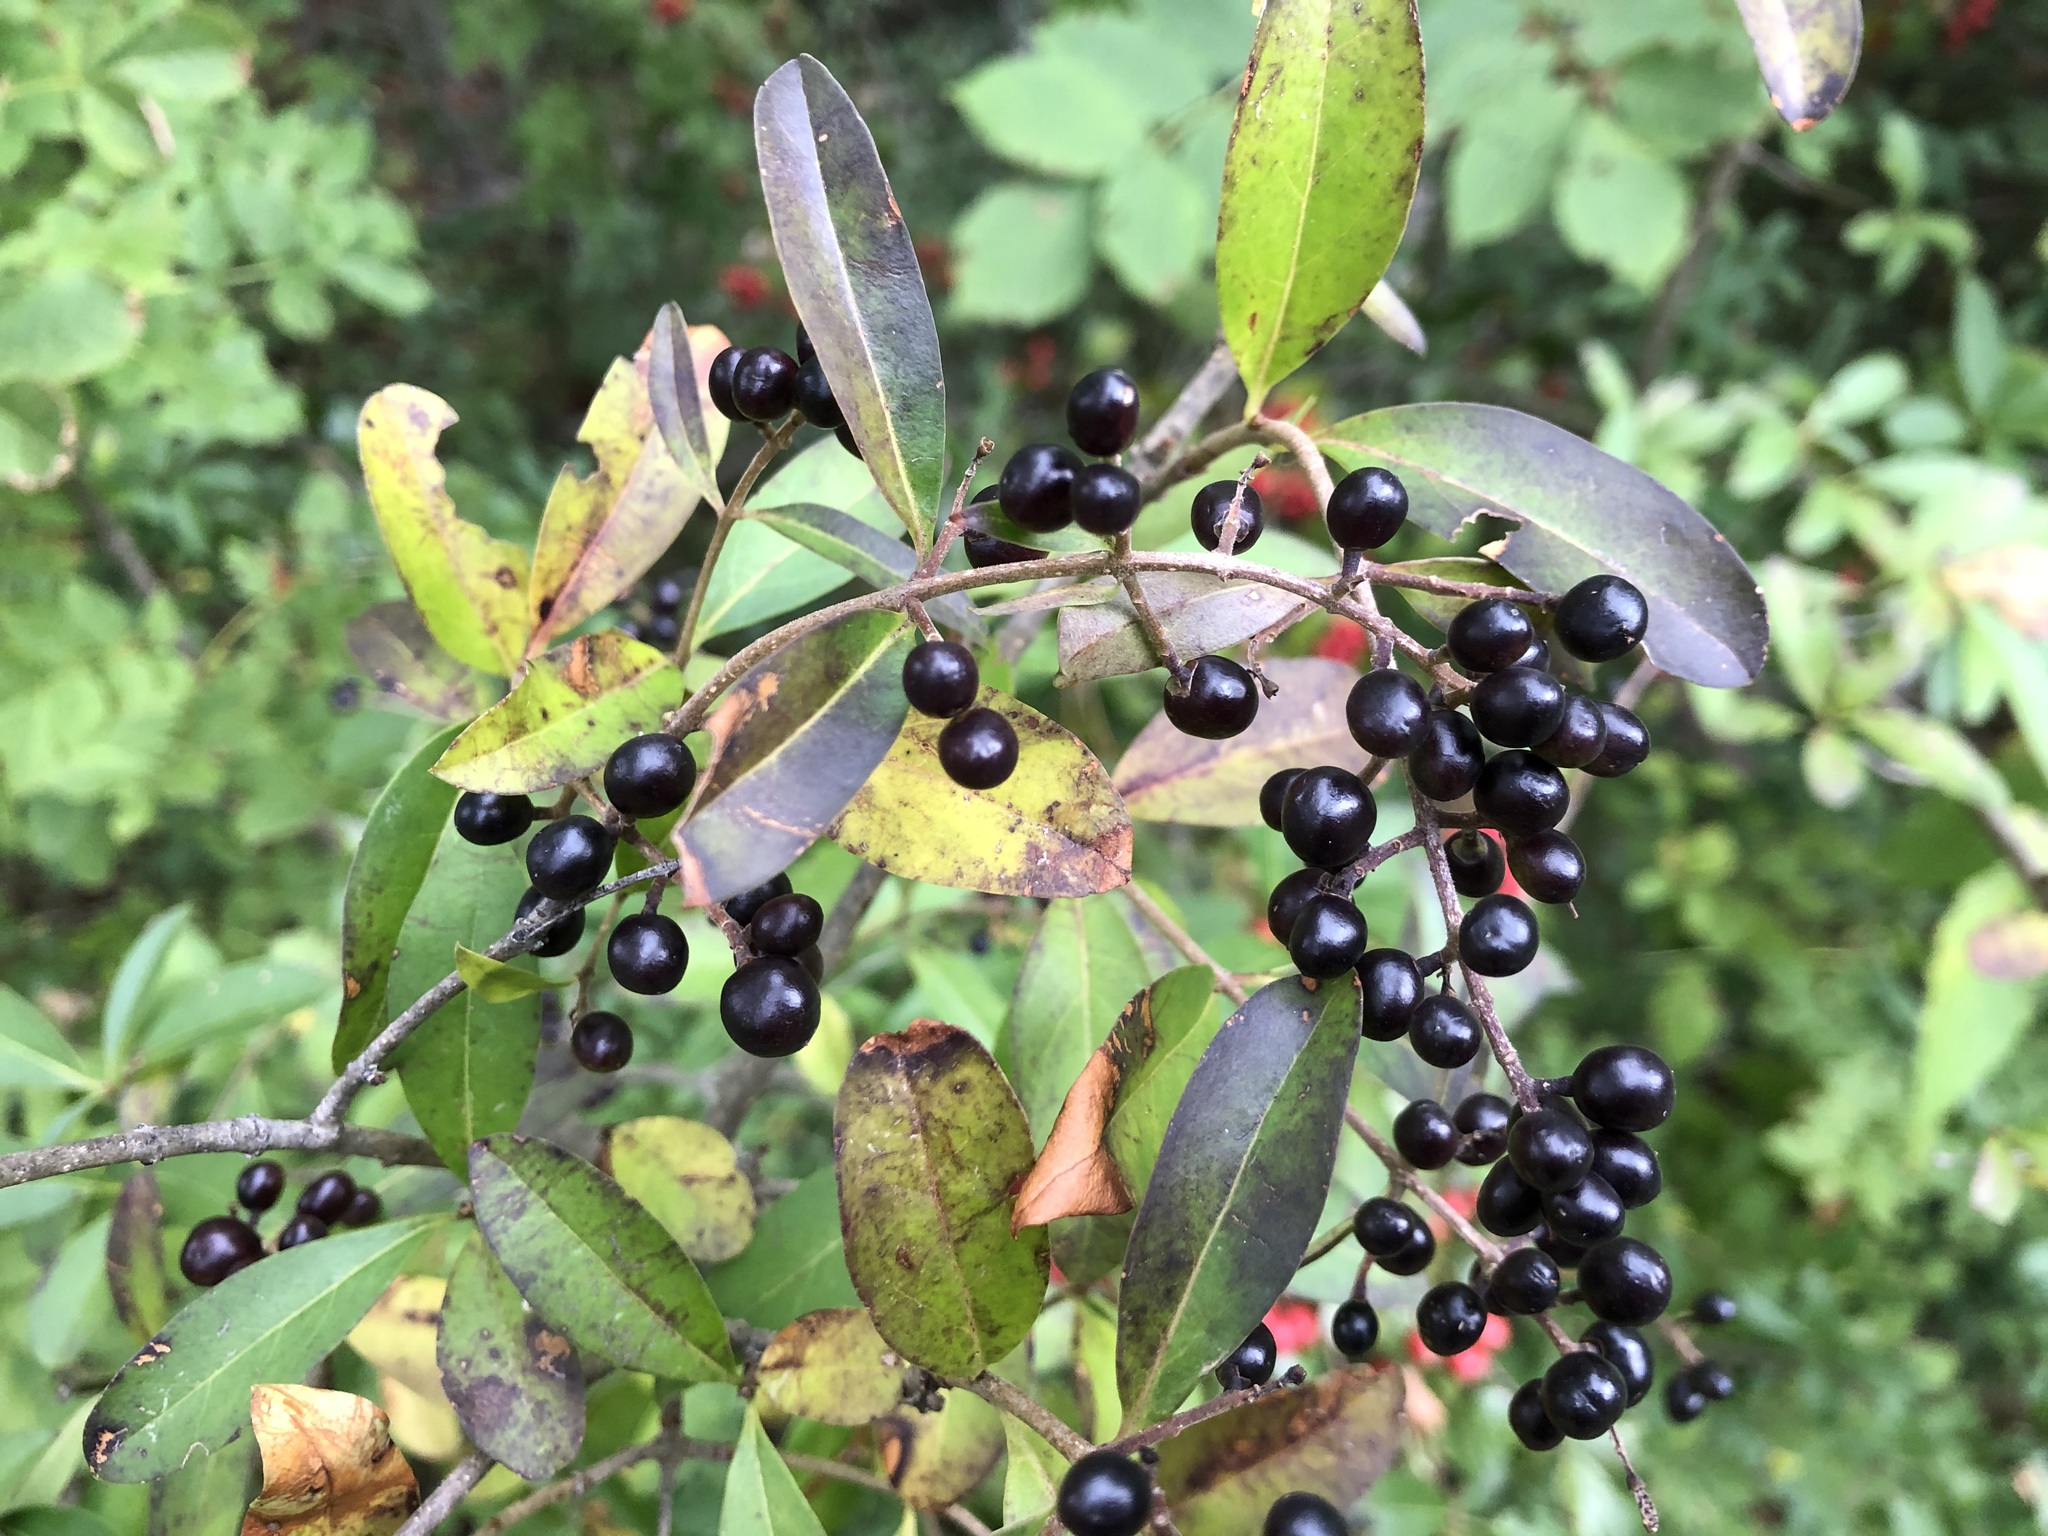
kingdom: Plantae
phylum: Tracheophyta
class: Magnoliopsida
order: Lamiales
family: Oleaceae
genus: Ligustrum
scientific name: Ligustrum vulgare
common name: Wild privet
